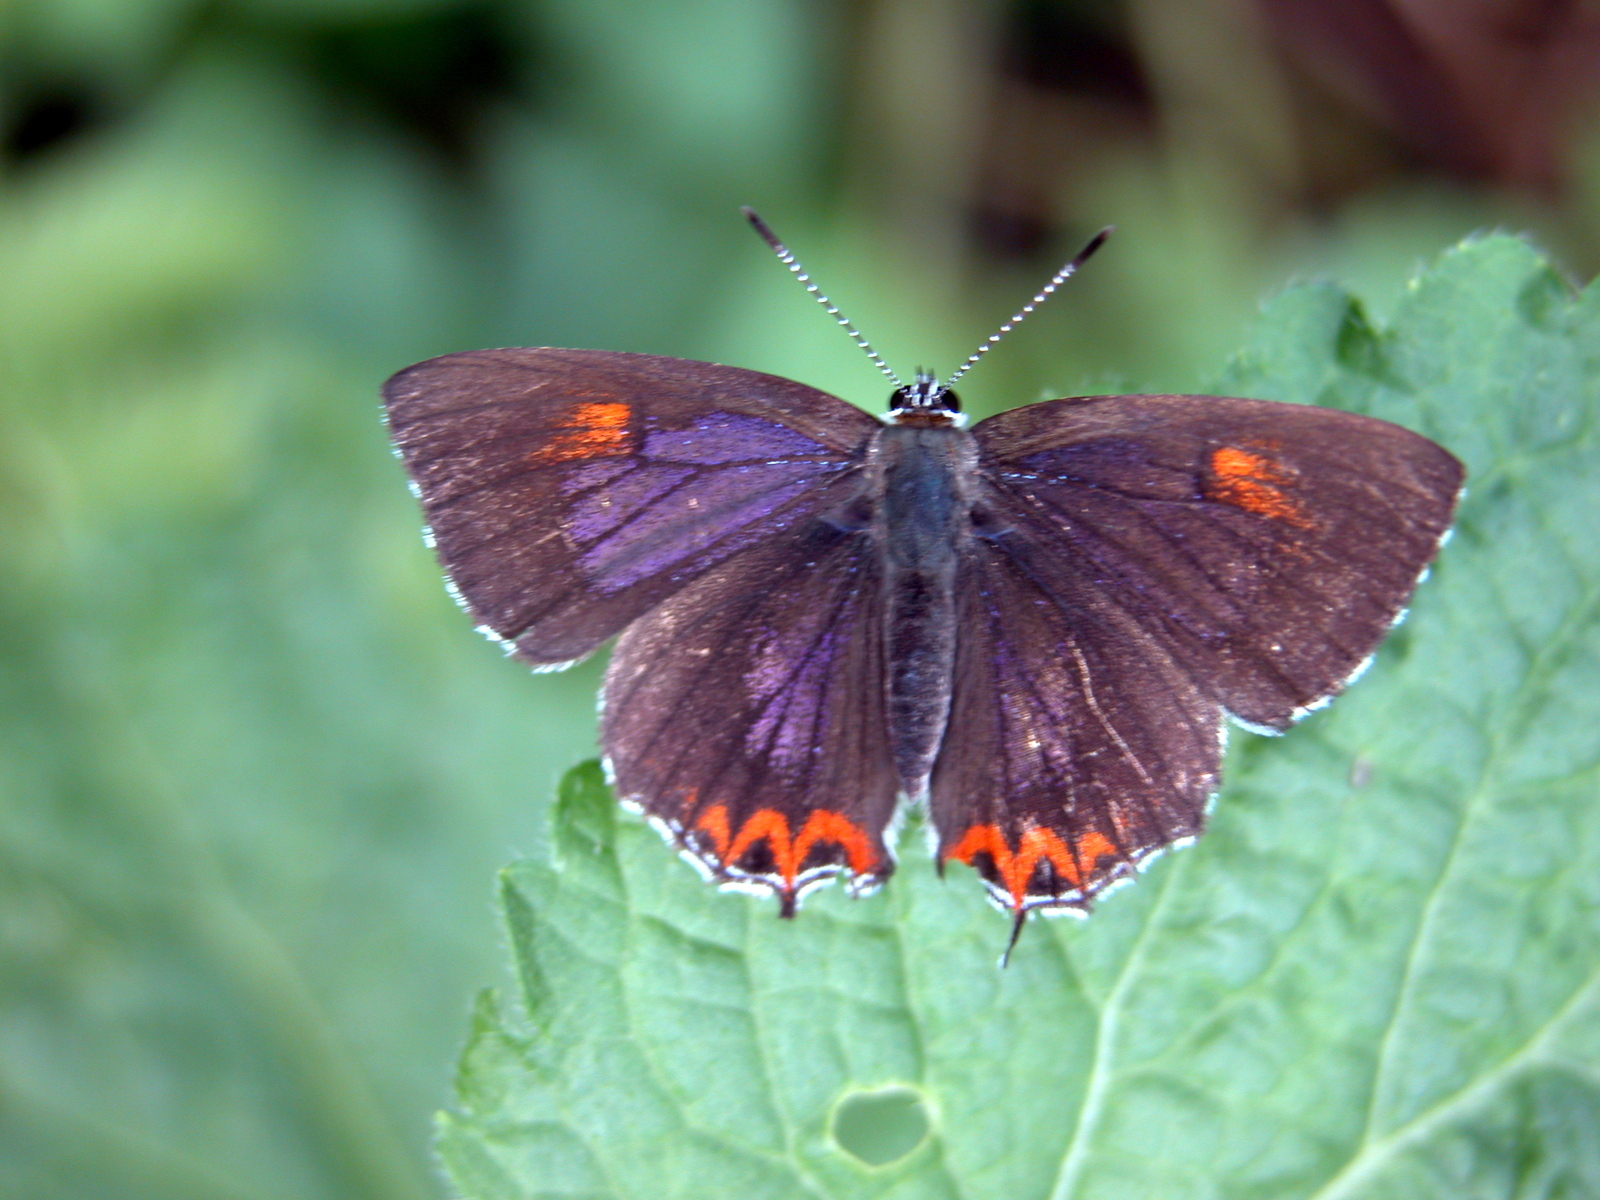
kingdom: Animalia
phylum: Arthropoda
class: Insecta
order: Lepidoptera
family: Lycaenidae
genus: Heliophorus
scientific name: Heliophorus epicles
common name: Purple sapphire
